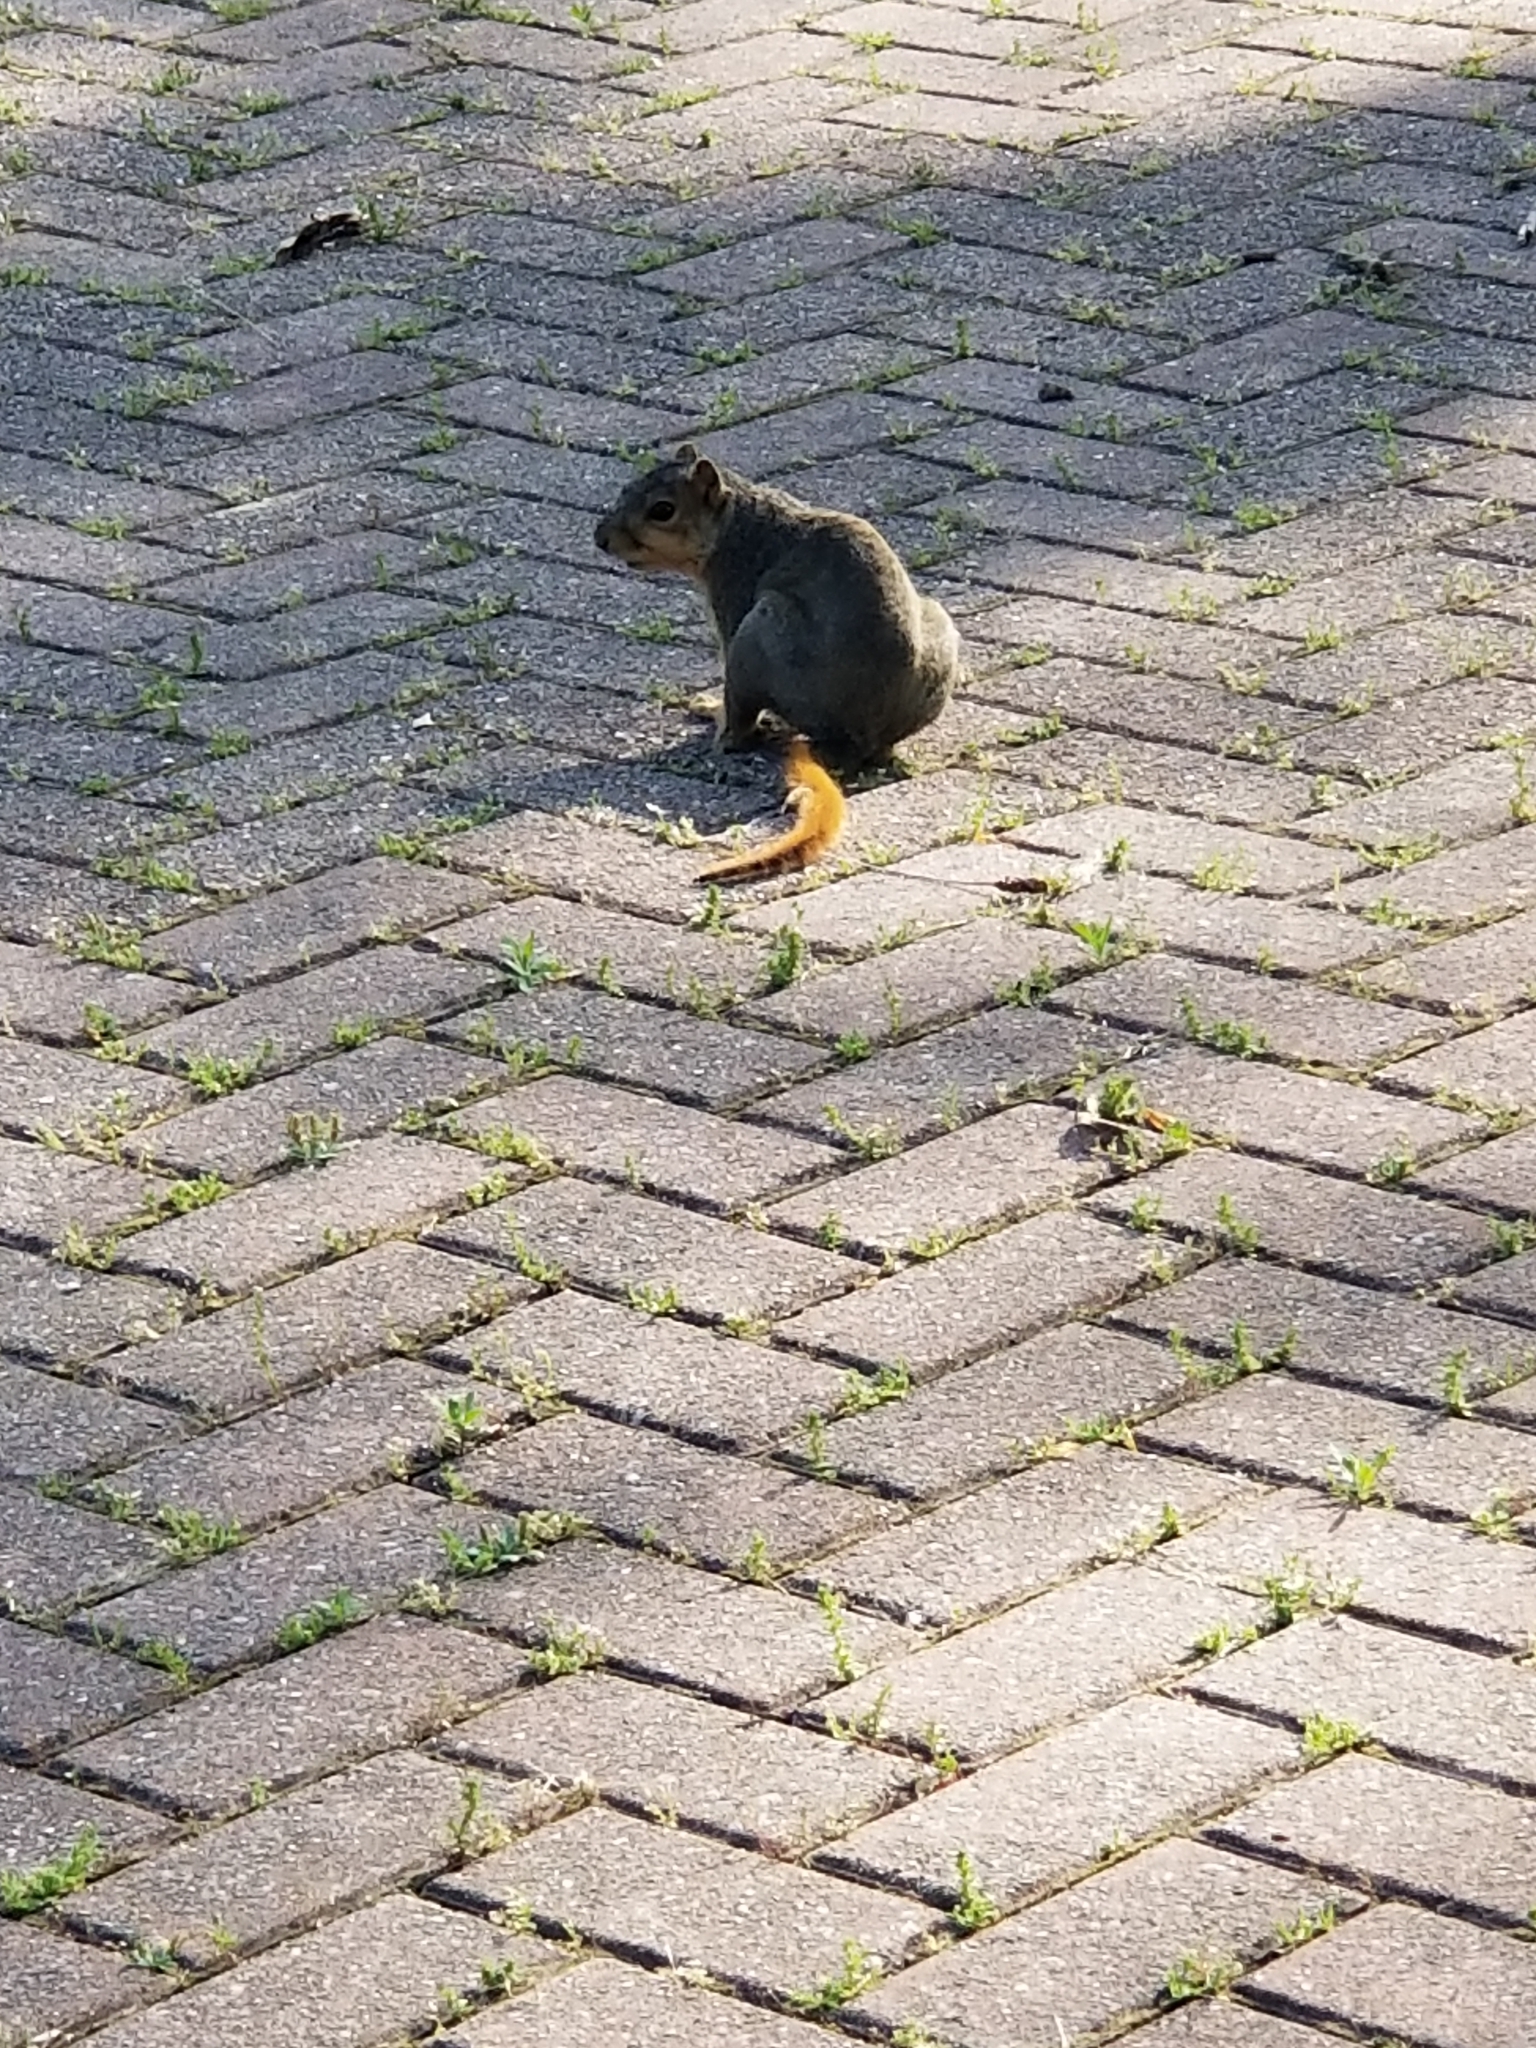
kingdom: Animalia
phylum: Chordata
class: Mammalia
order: Rodentia
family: Sciuridae
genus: Sciurus
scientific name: Sciurus niger
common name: Fox squirrel
